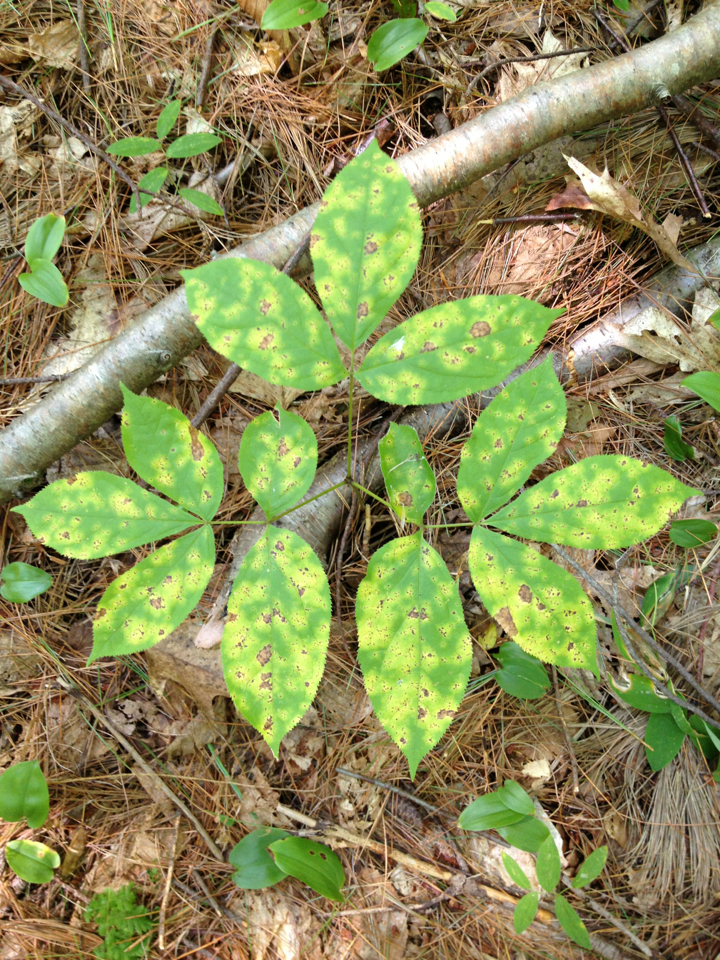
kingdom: Plantae
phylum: Tracheophyta
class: Magnoliopsida
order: Apiales
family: Araliaceae
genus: Aralia
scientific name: Aralia nudicaulis
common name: Wild sarsaparilla
